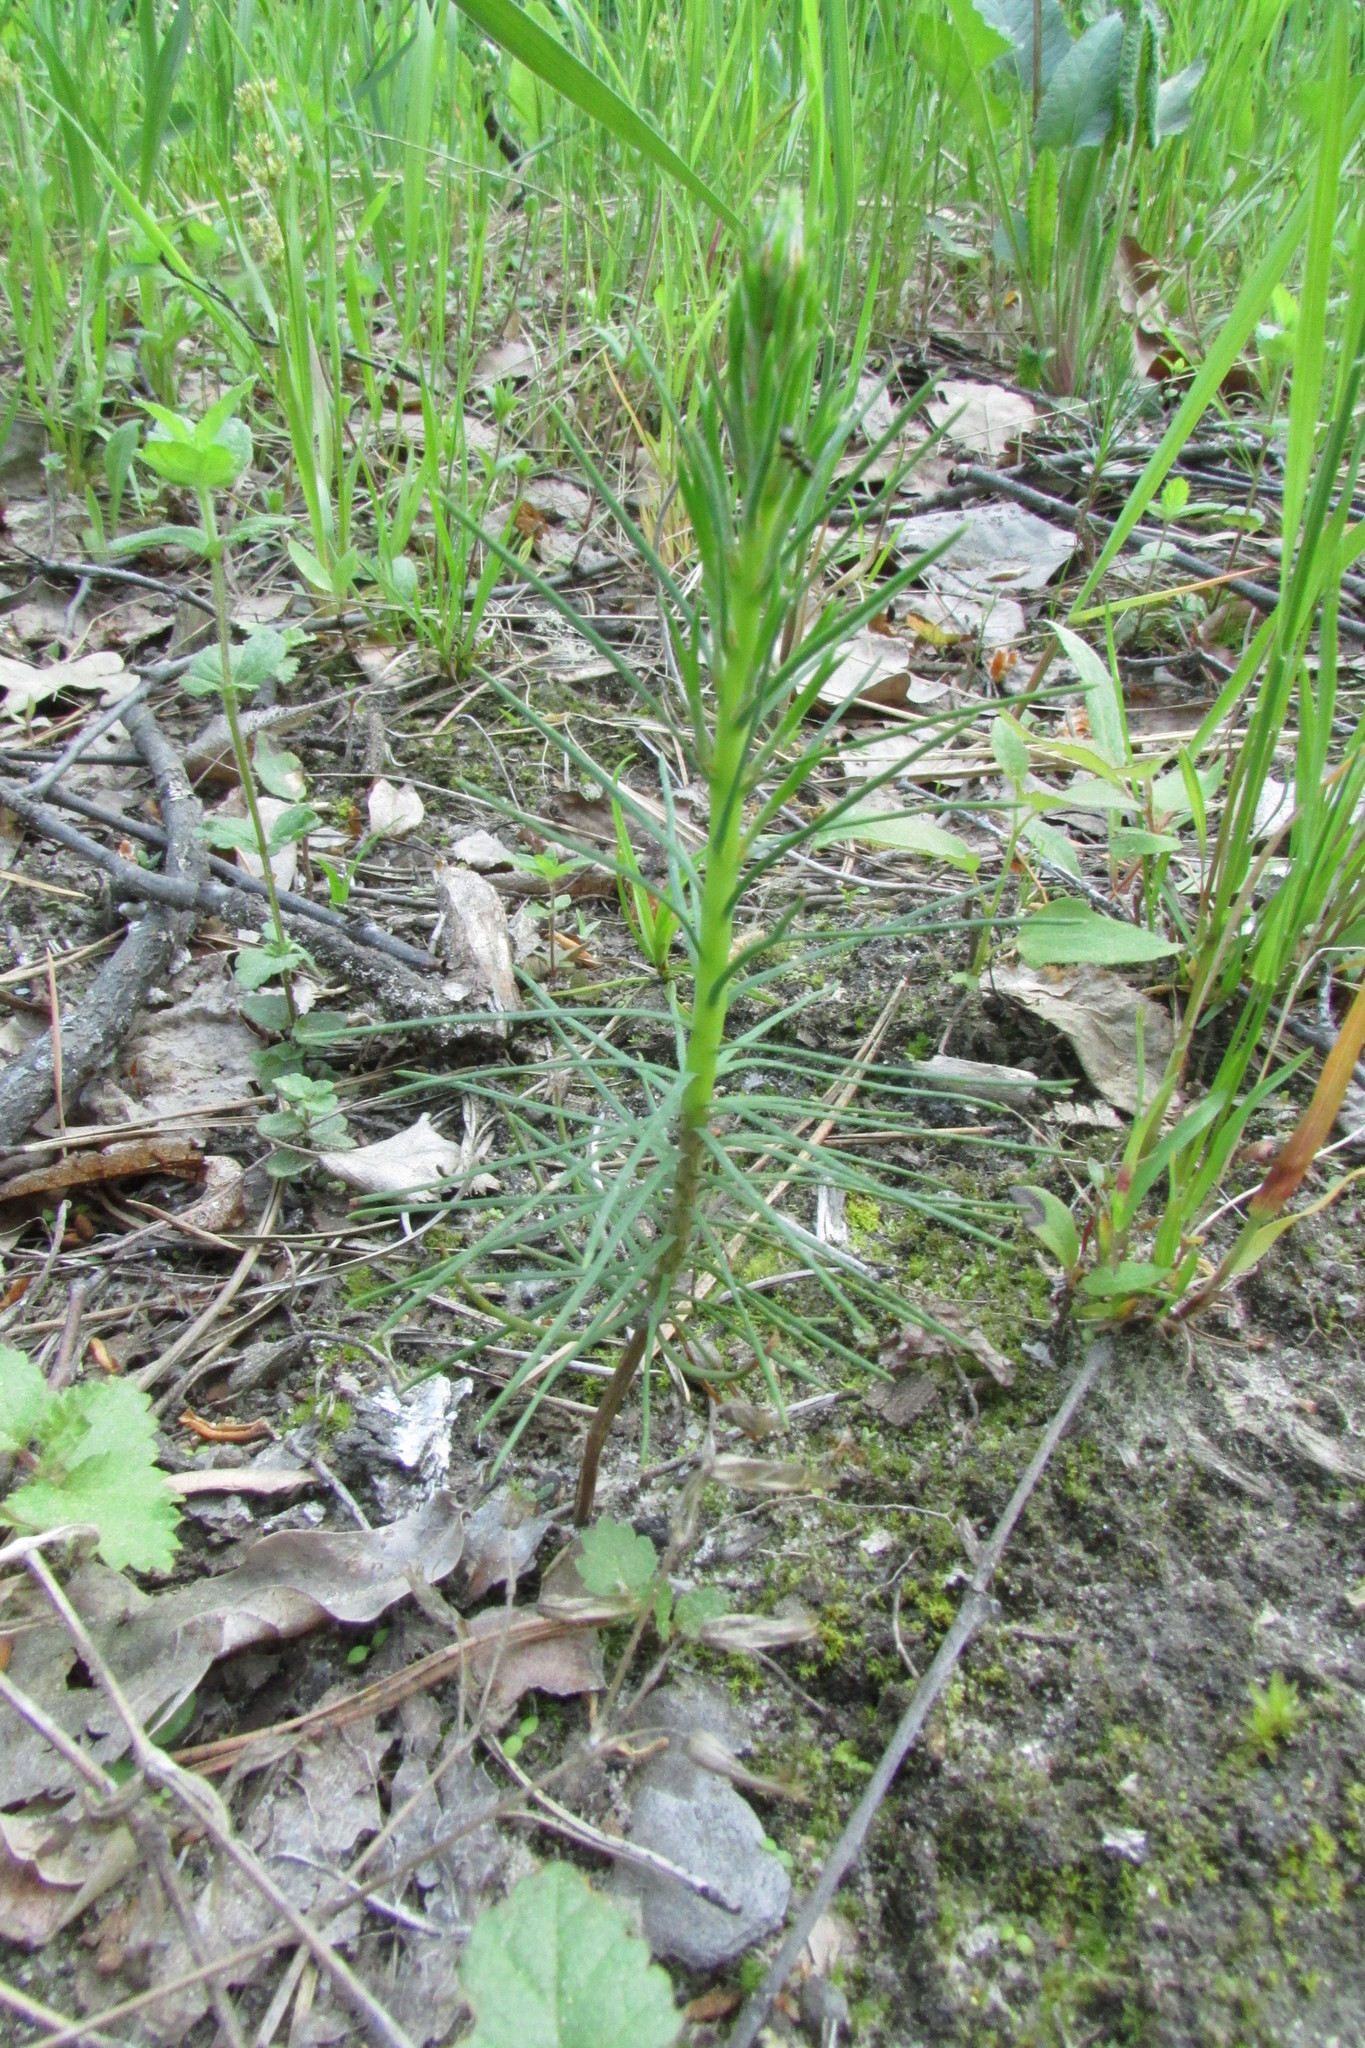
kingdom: Plantae
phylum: Tracheophyta
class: Pinopsida
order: Pinales
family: Pinaceae
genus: Pinus
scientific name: Pinus sylvestris
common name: Scots pine
